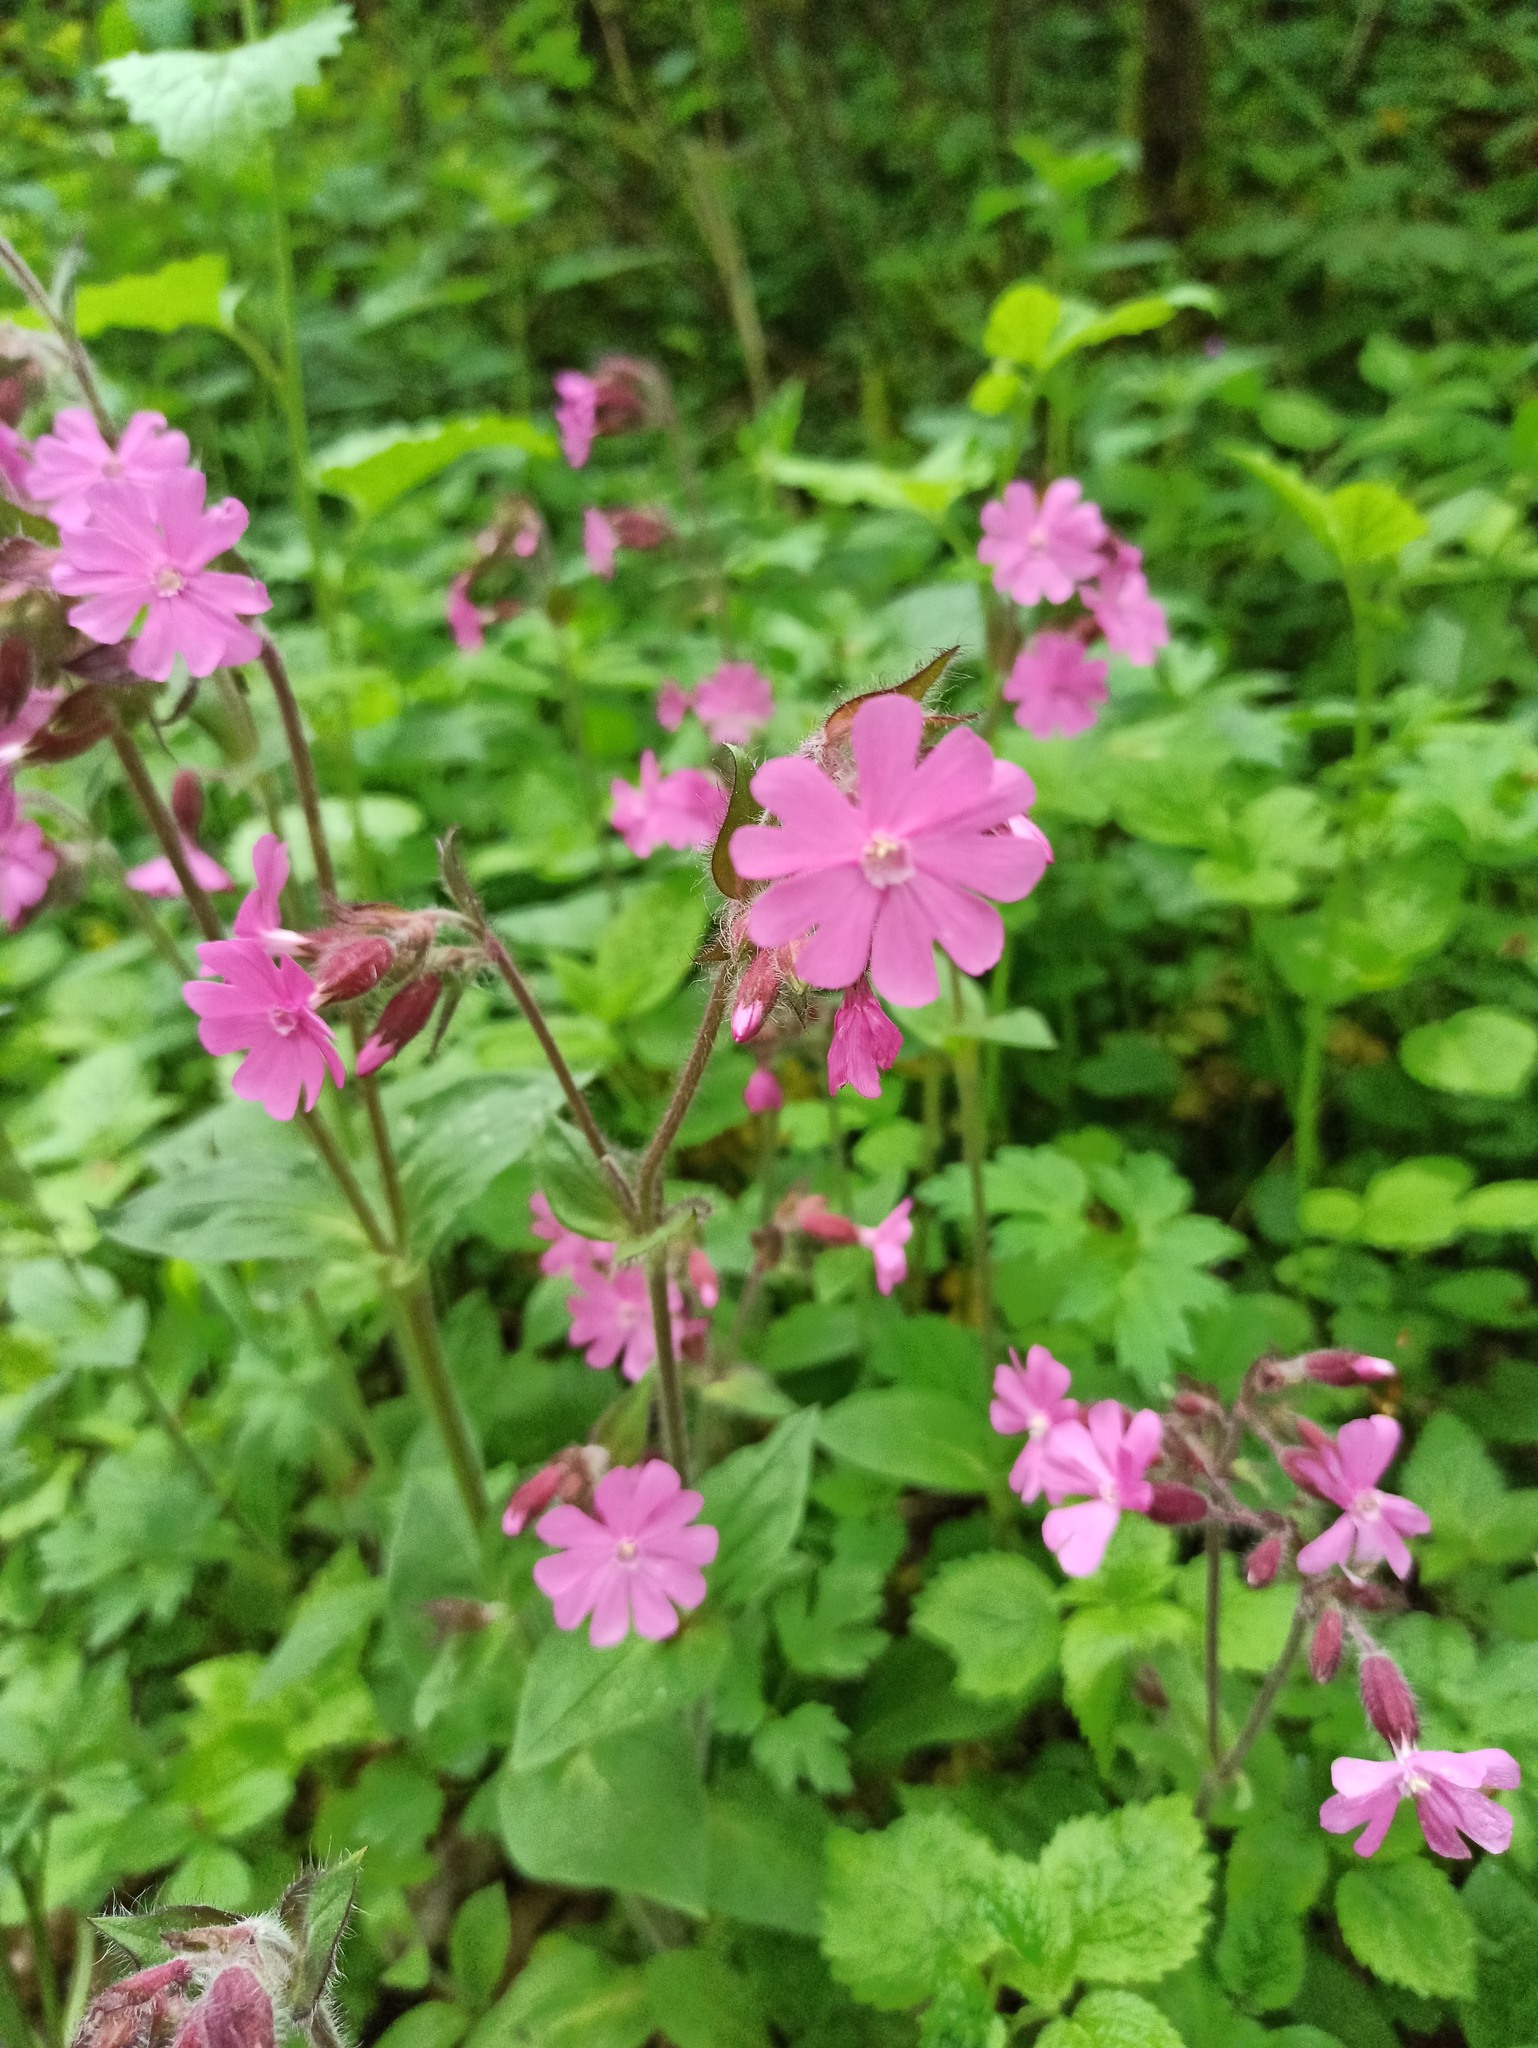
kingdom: Plantae
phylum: Tracheophyta
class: Magnoliopsida
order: Caryophyllales
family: Caryophyllaceae
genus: Silene
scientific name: Silene dioica
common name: Red campion
